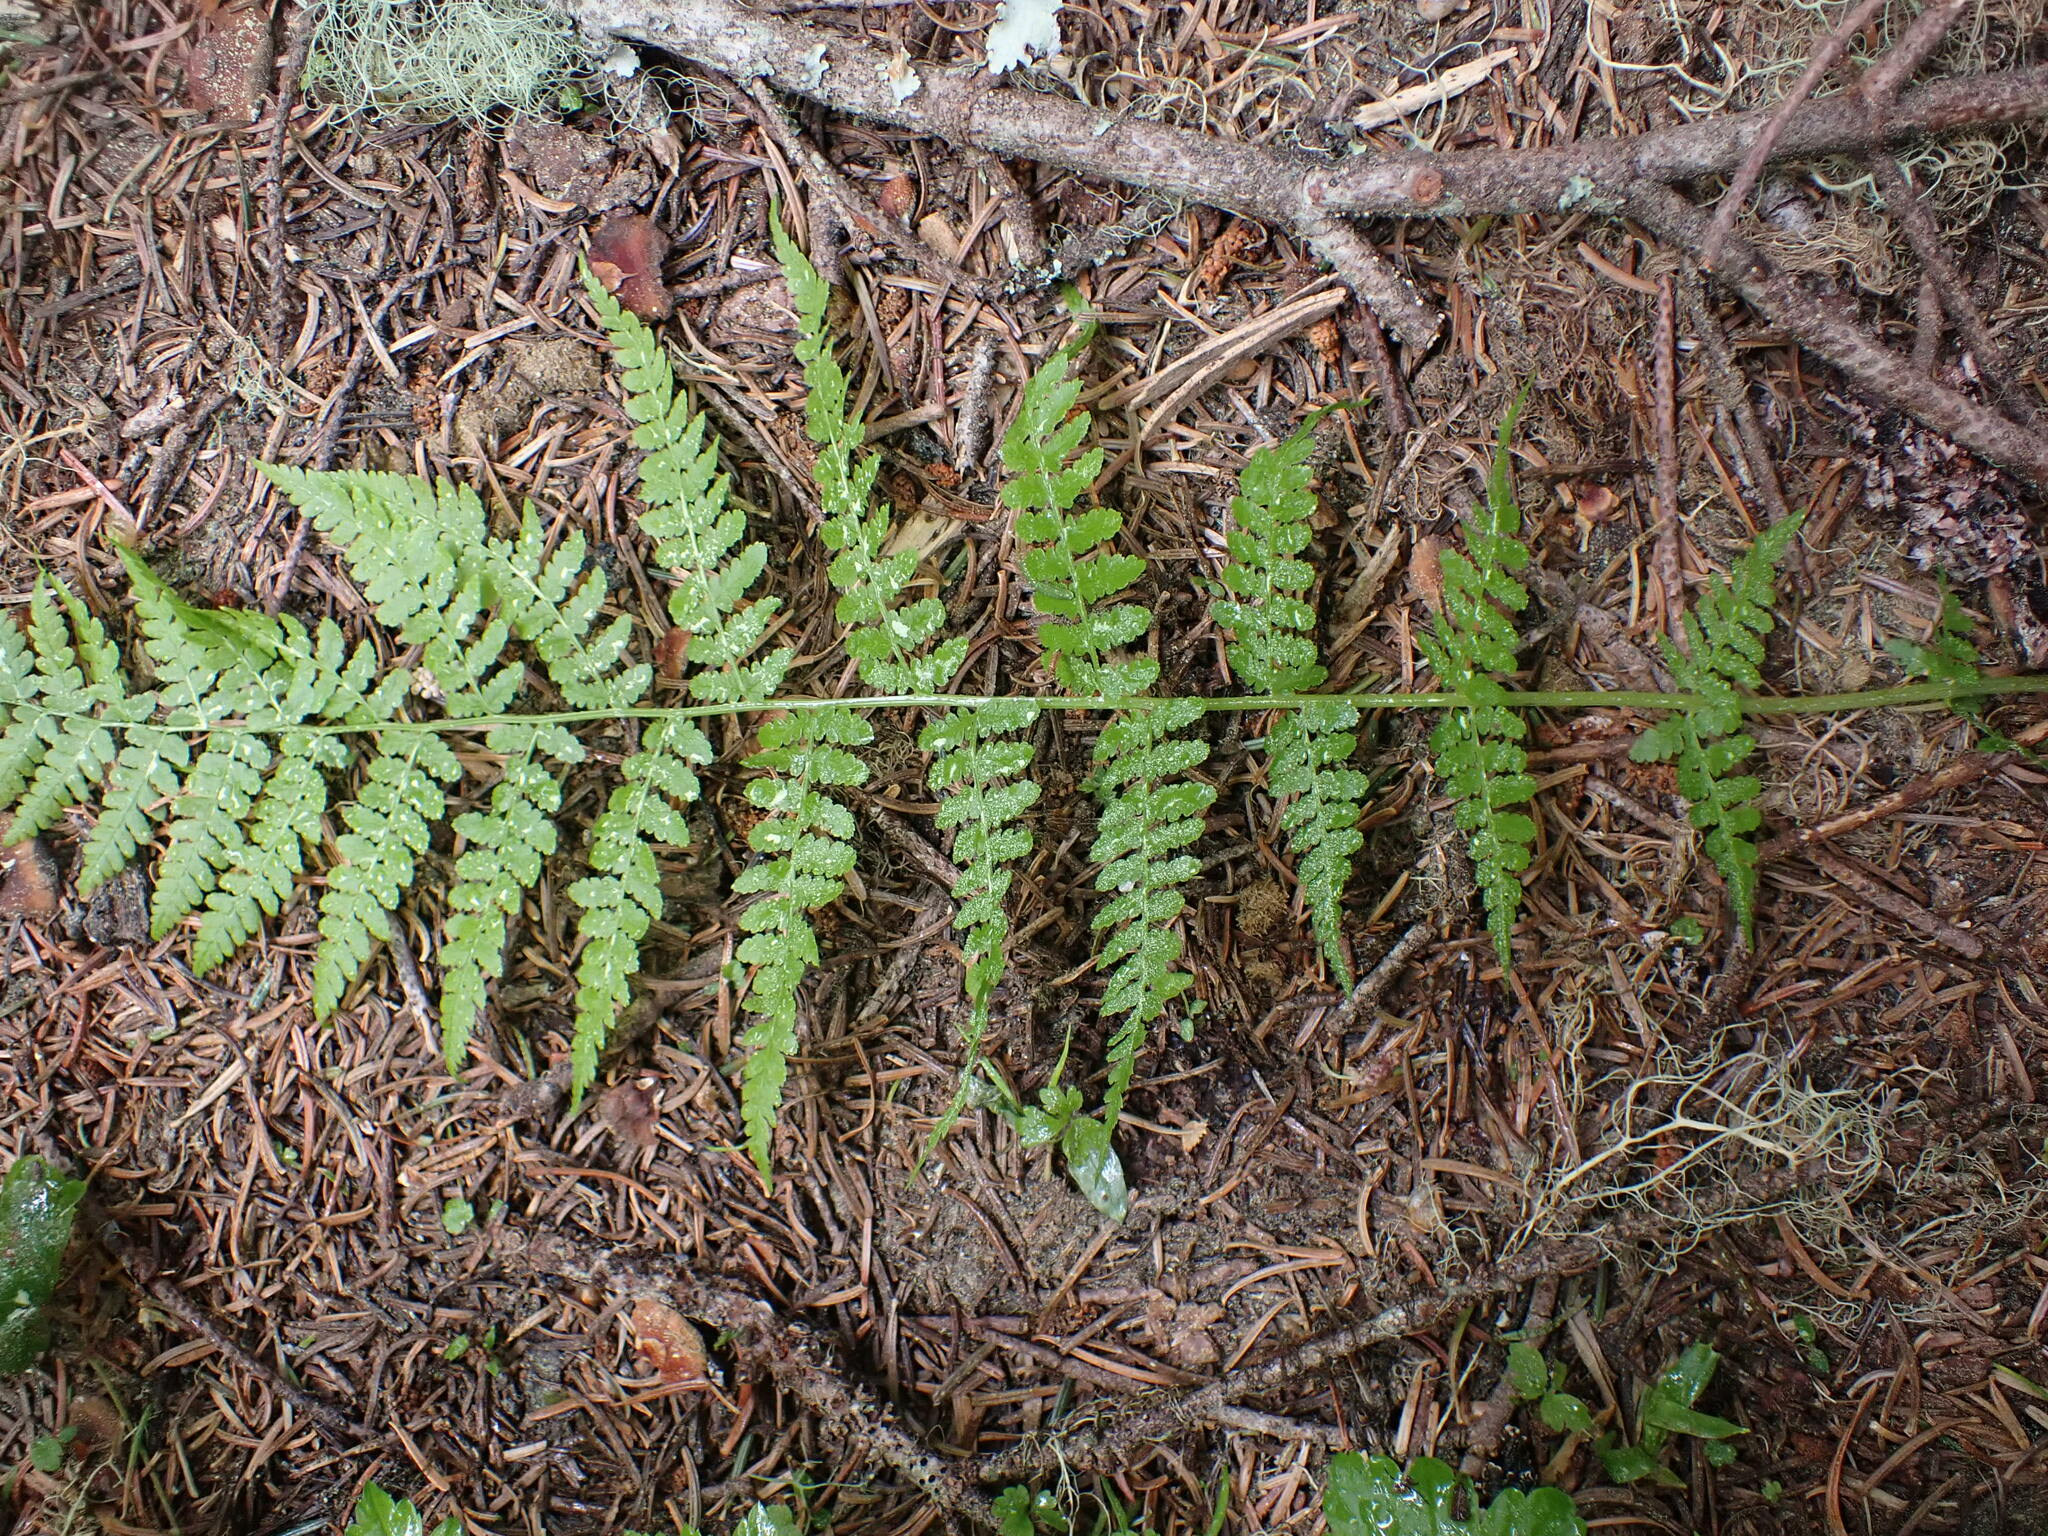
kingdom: Plantae
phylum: Tracheophyta
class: Polypodiopsida
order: Polypodiales
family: Athyriaceae
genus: Athyrium
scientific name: Athyrium filix-femina
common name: Lady fern
